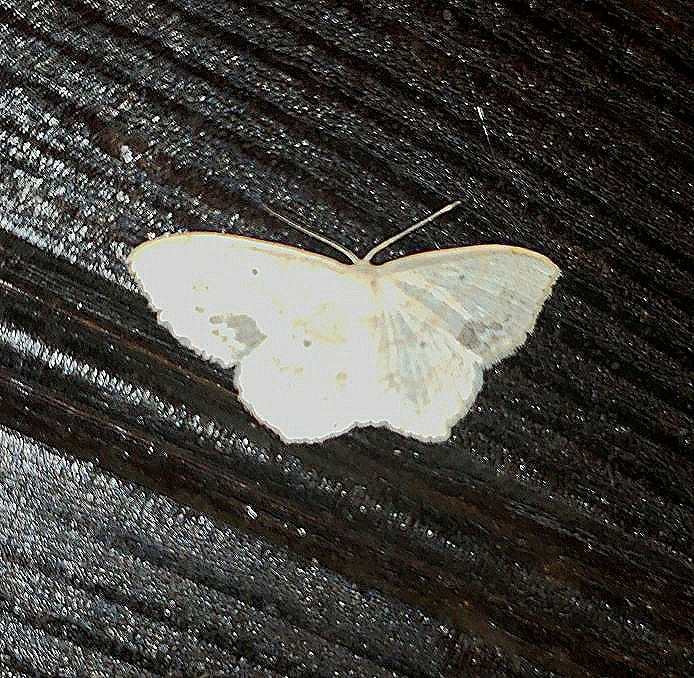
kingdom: Animalia
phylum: Arthropoda
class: Insecta
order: Lepidoptera
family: Geometridae
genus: Scopula
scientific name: Scopula limboundata
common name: Large lace border
